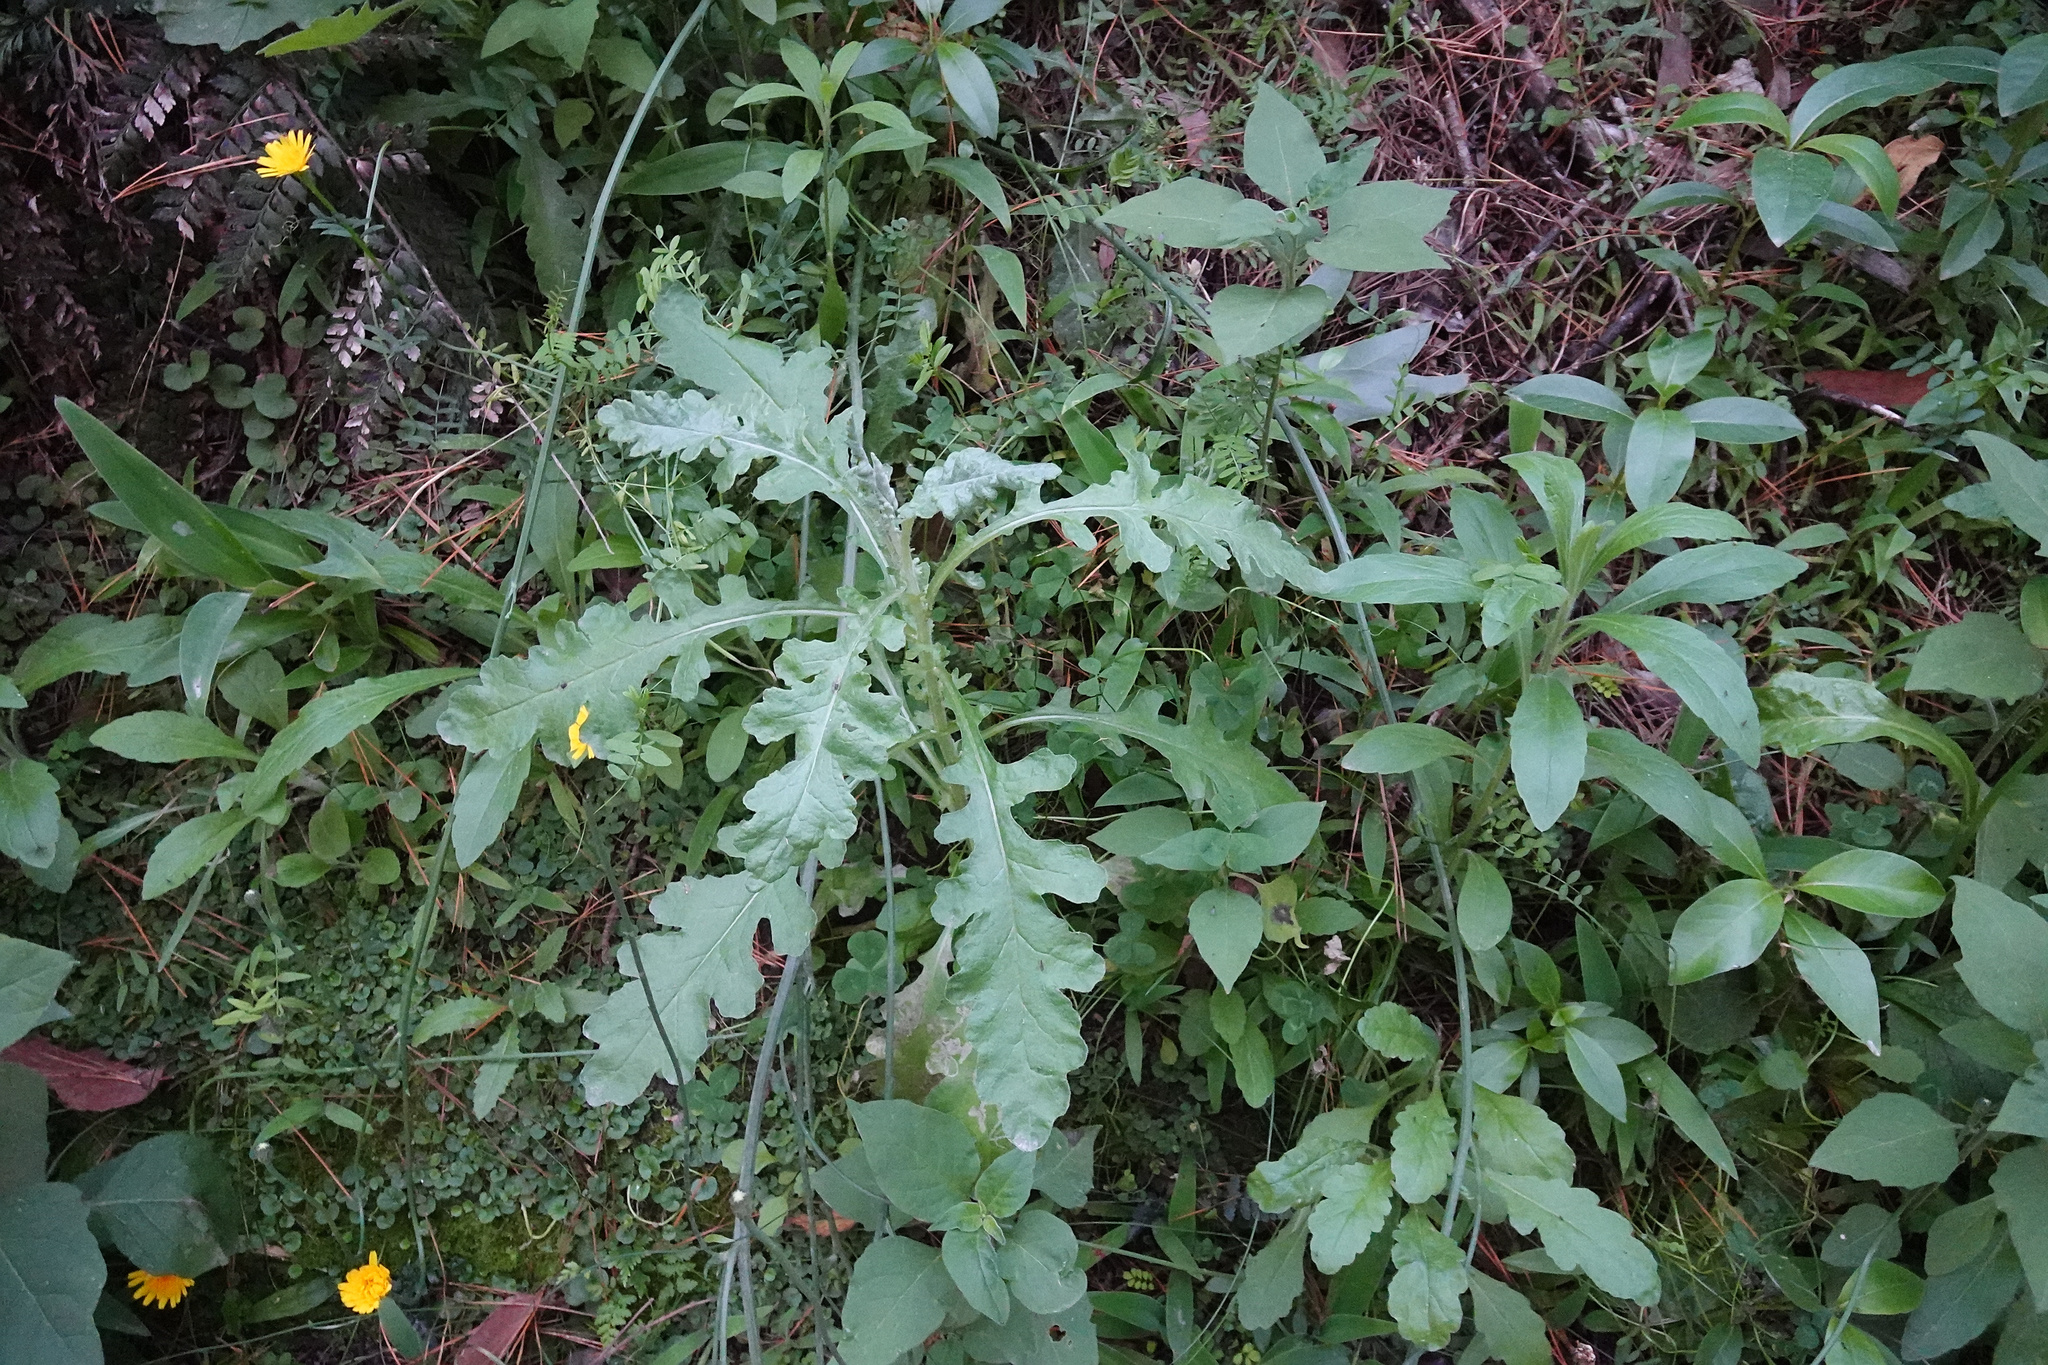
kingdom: Plantae
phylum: Tracheophyta
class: Magnoliopsida
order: Asterales
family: Asteraceae
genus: Senecio
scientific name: Senecio glomeratus
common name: Cutleaf burnweed
